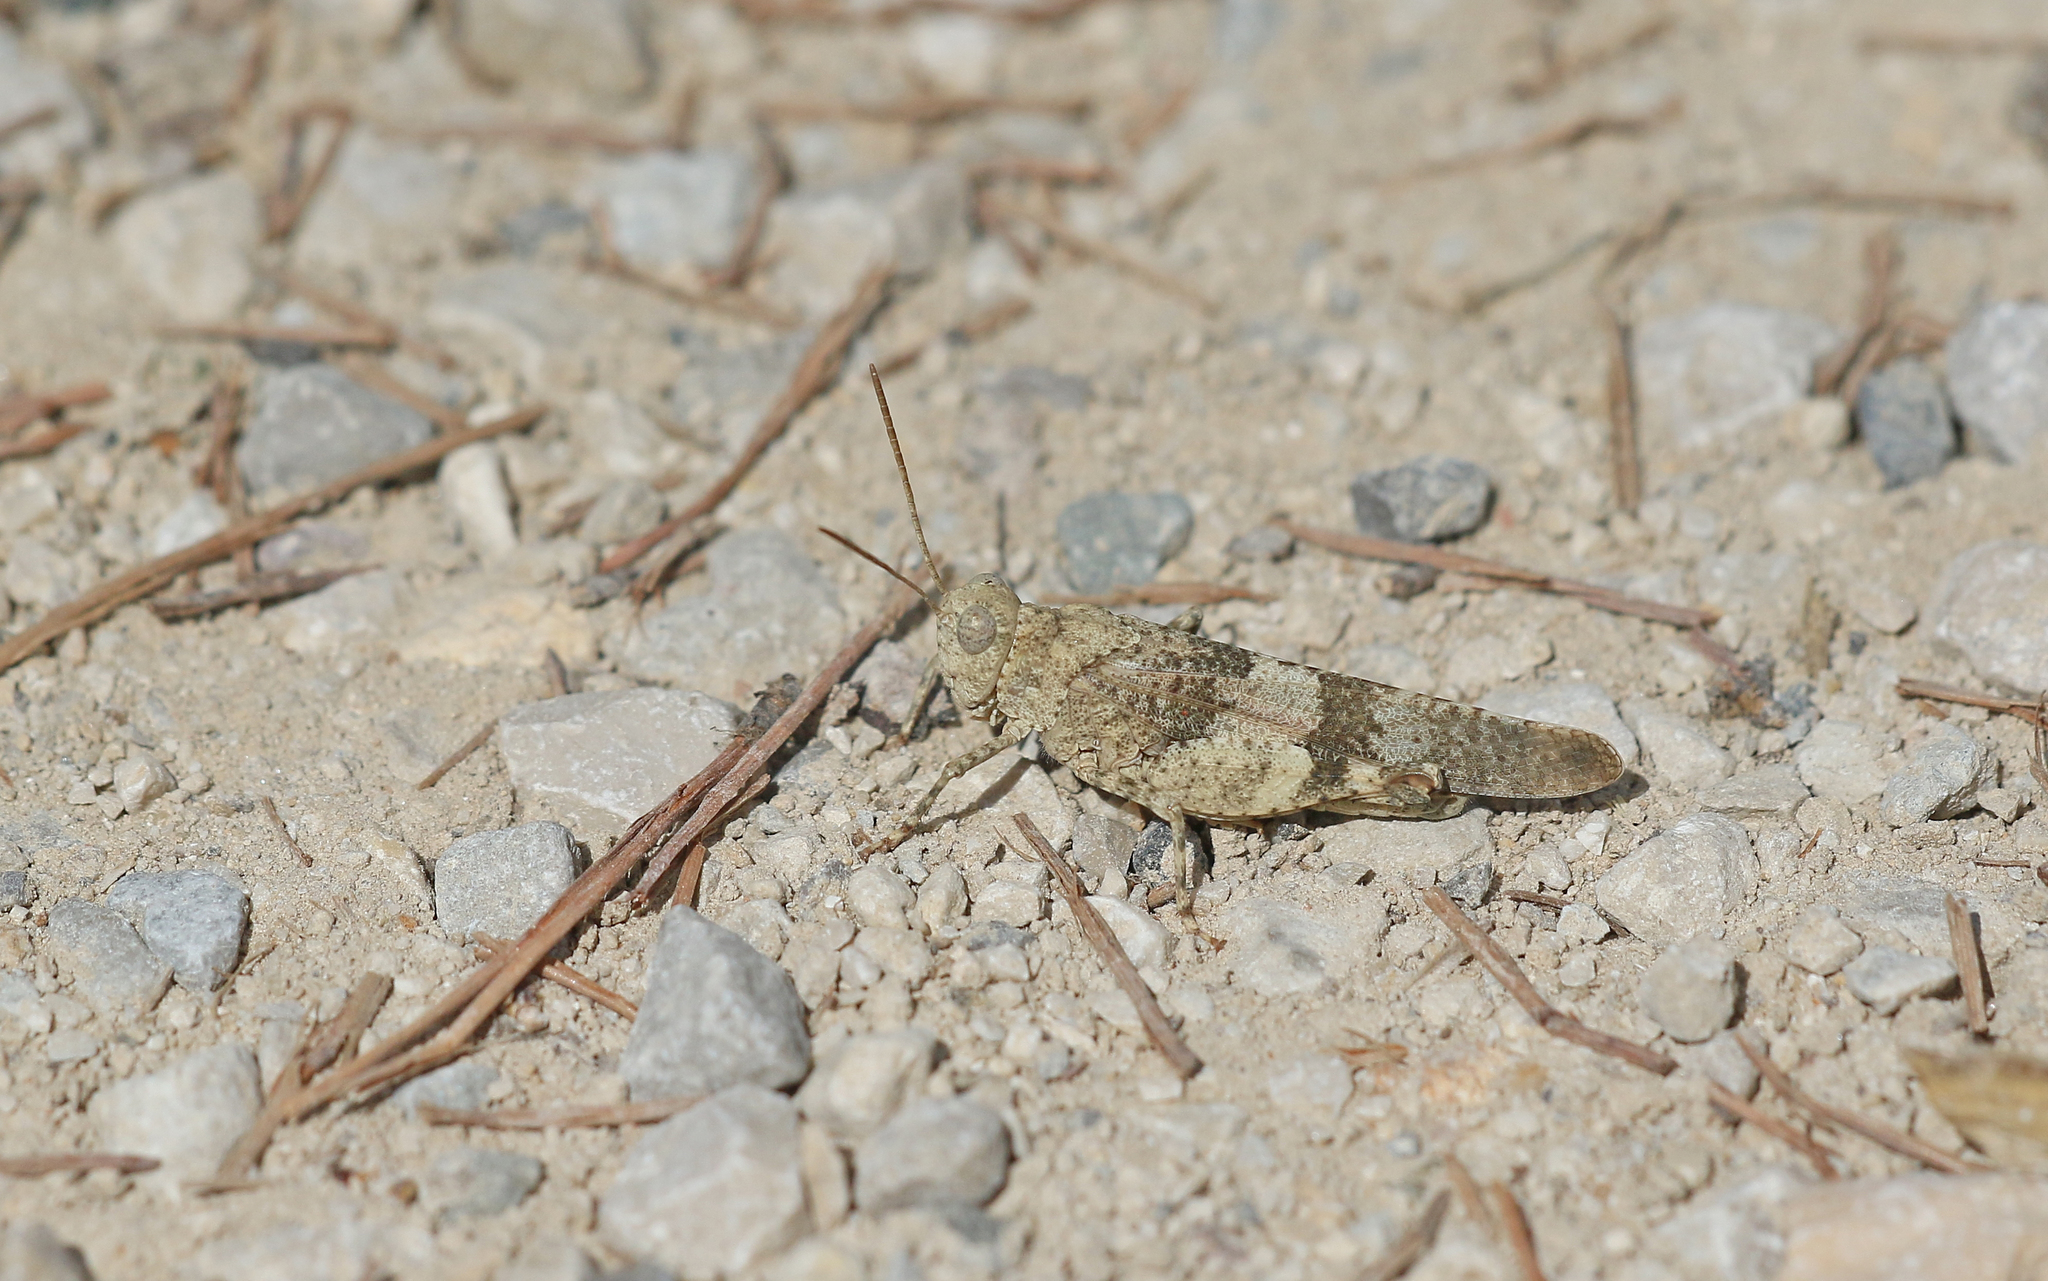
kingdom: Animalia
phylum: Arthropoda
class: Insecta
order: Orthoptera
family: Acrididae
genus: Oedipoda
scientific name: Oedipoda caerulescens
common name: Blue-winged grasshopper
